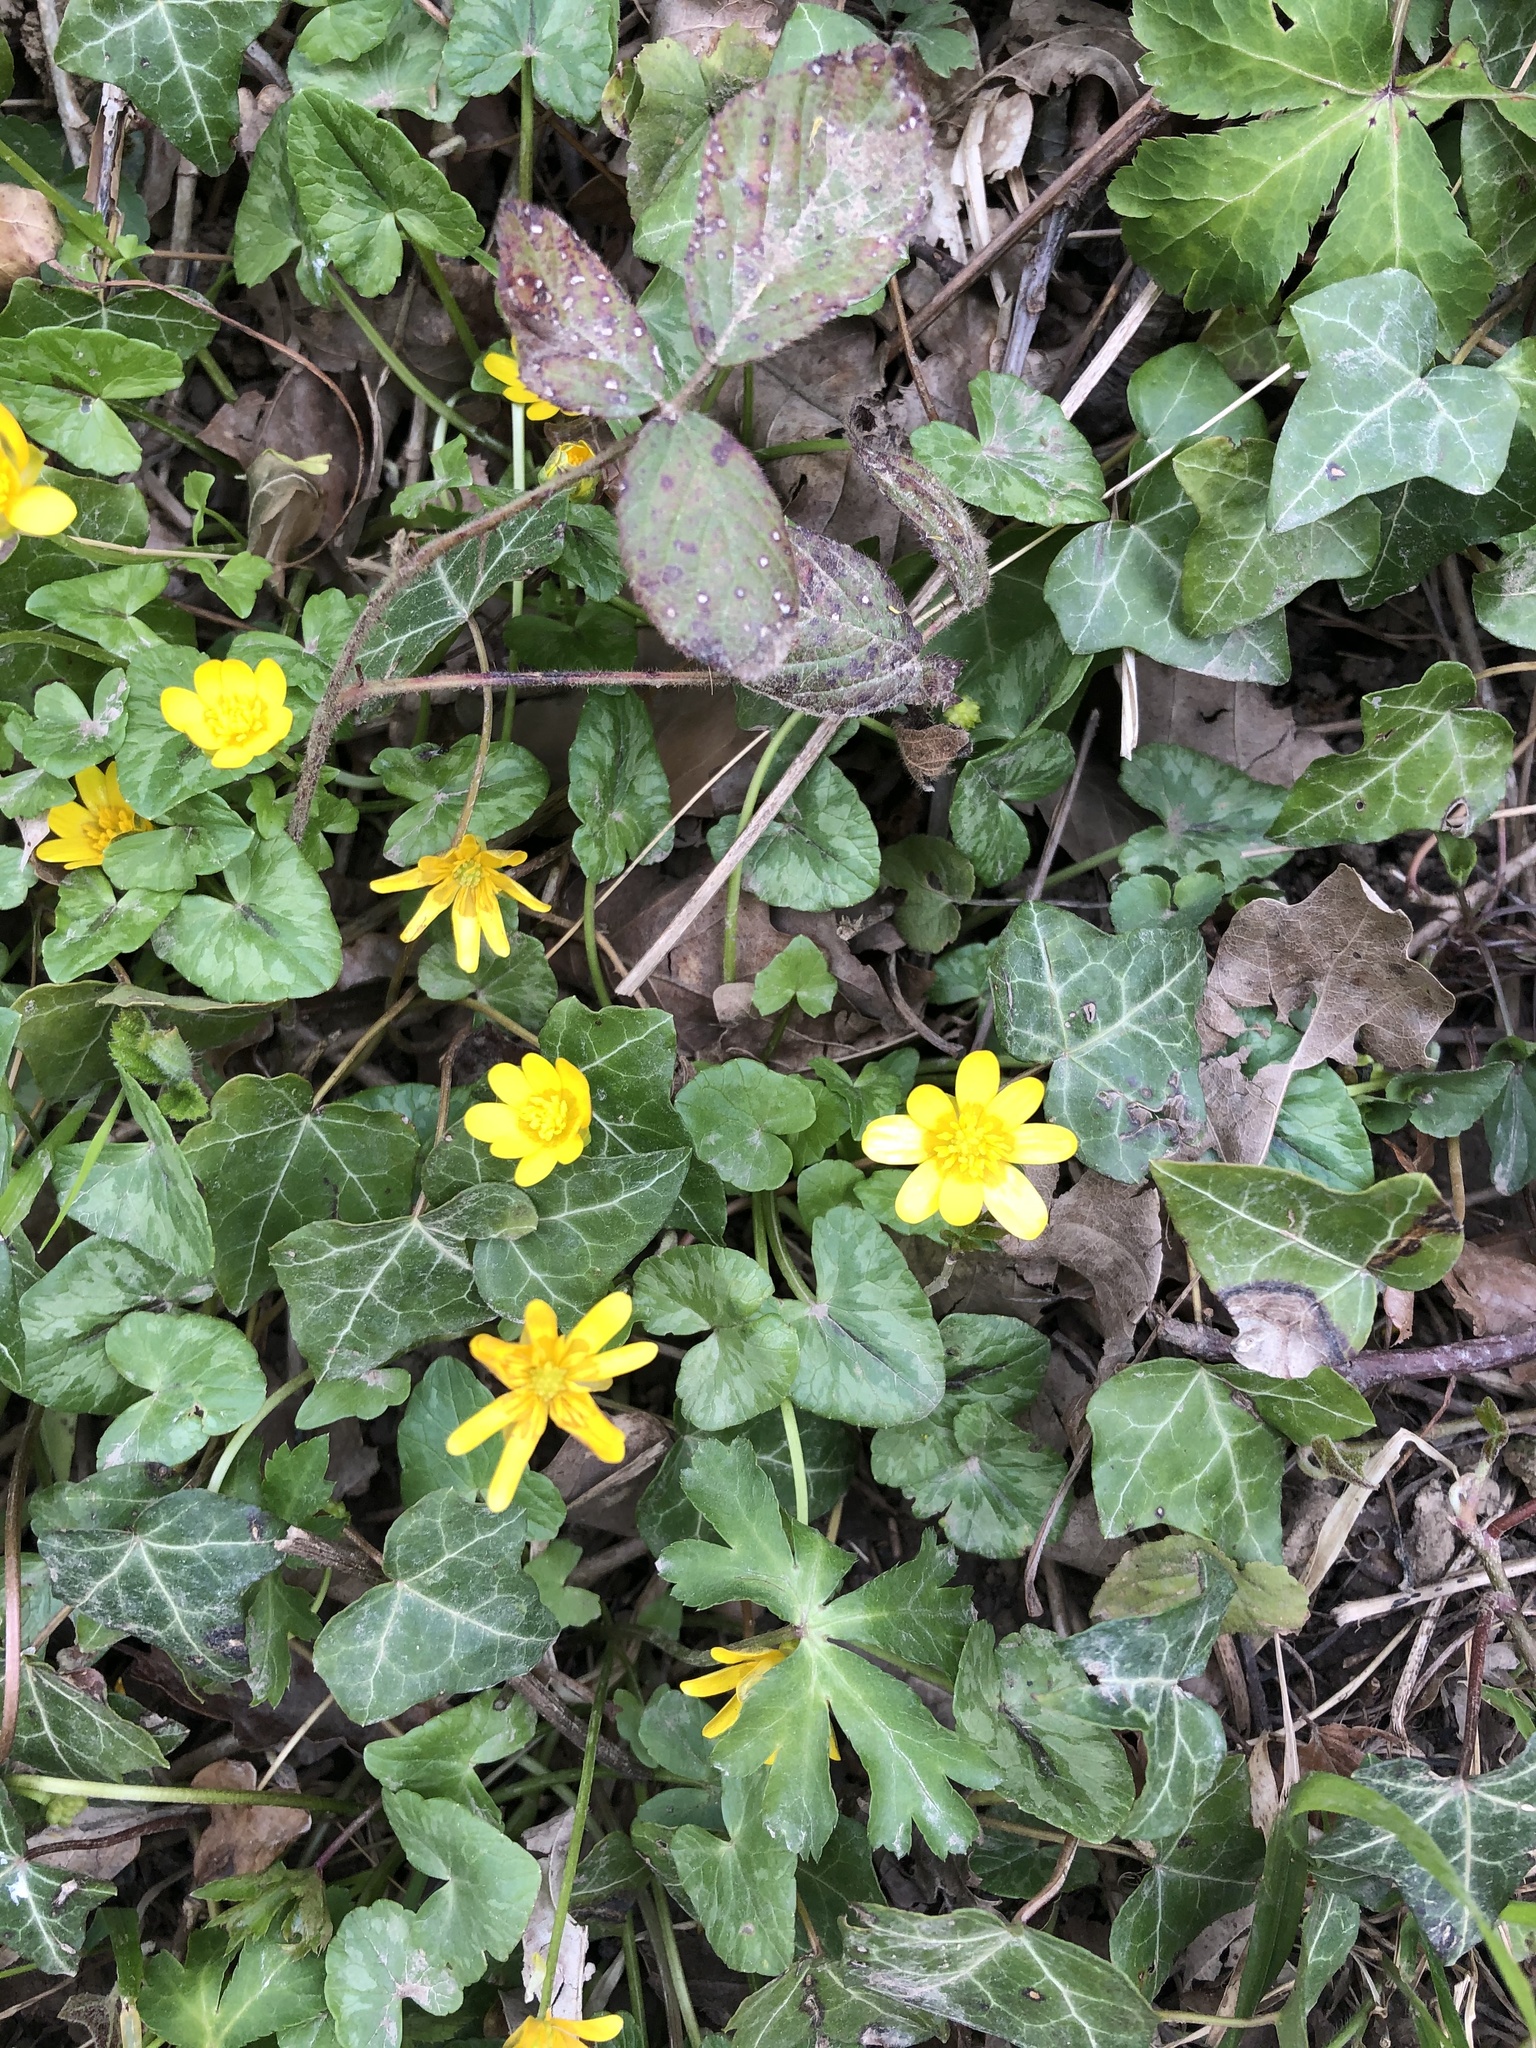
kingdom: Plantae
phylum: Tracheophyta
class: Magnoliopsida
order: Ranunculales
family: Ranunculaceae
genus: Ficaria
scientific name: Ficaria verna
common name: Lesser celandine
